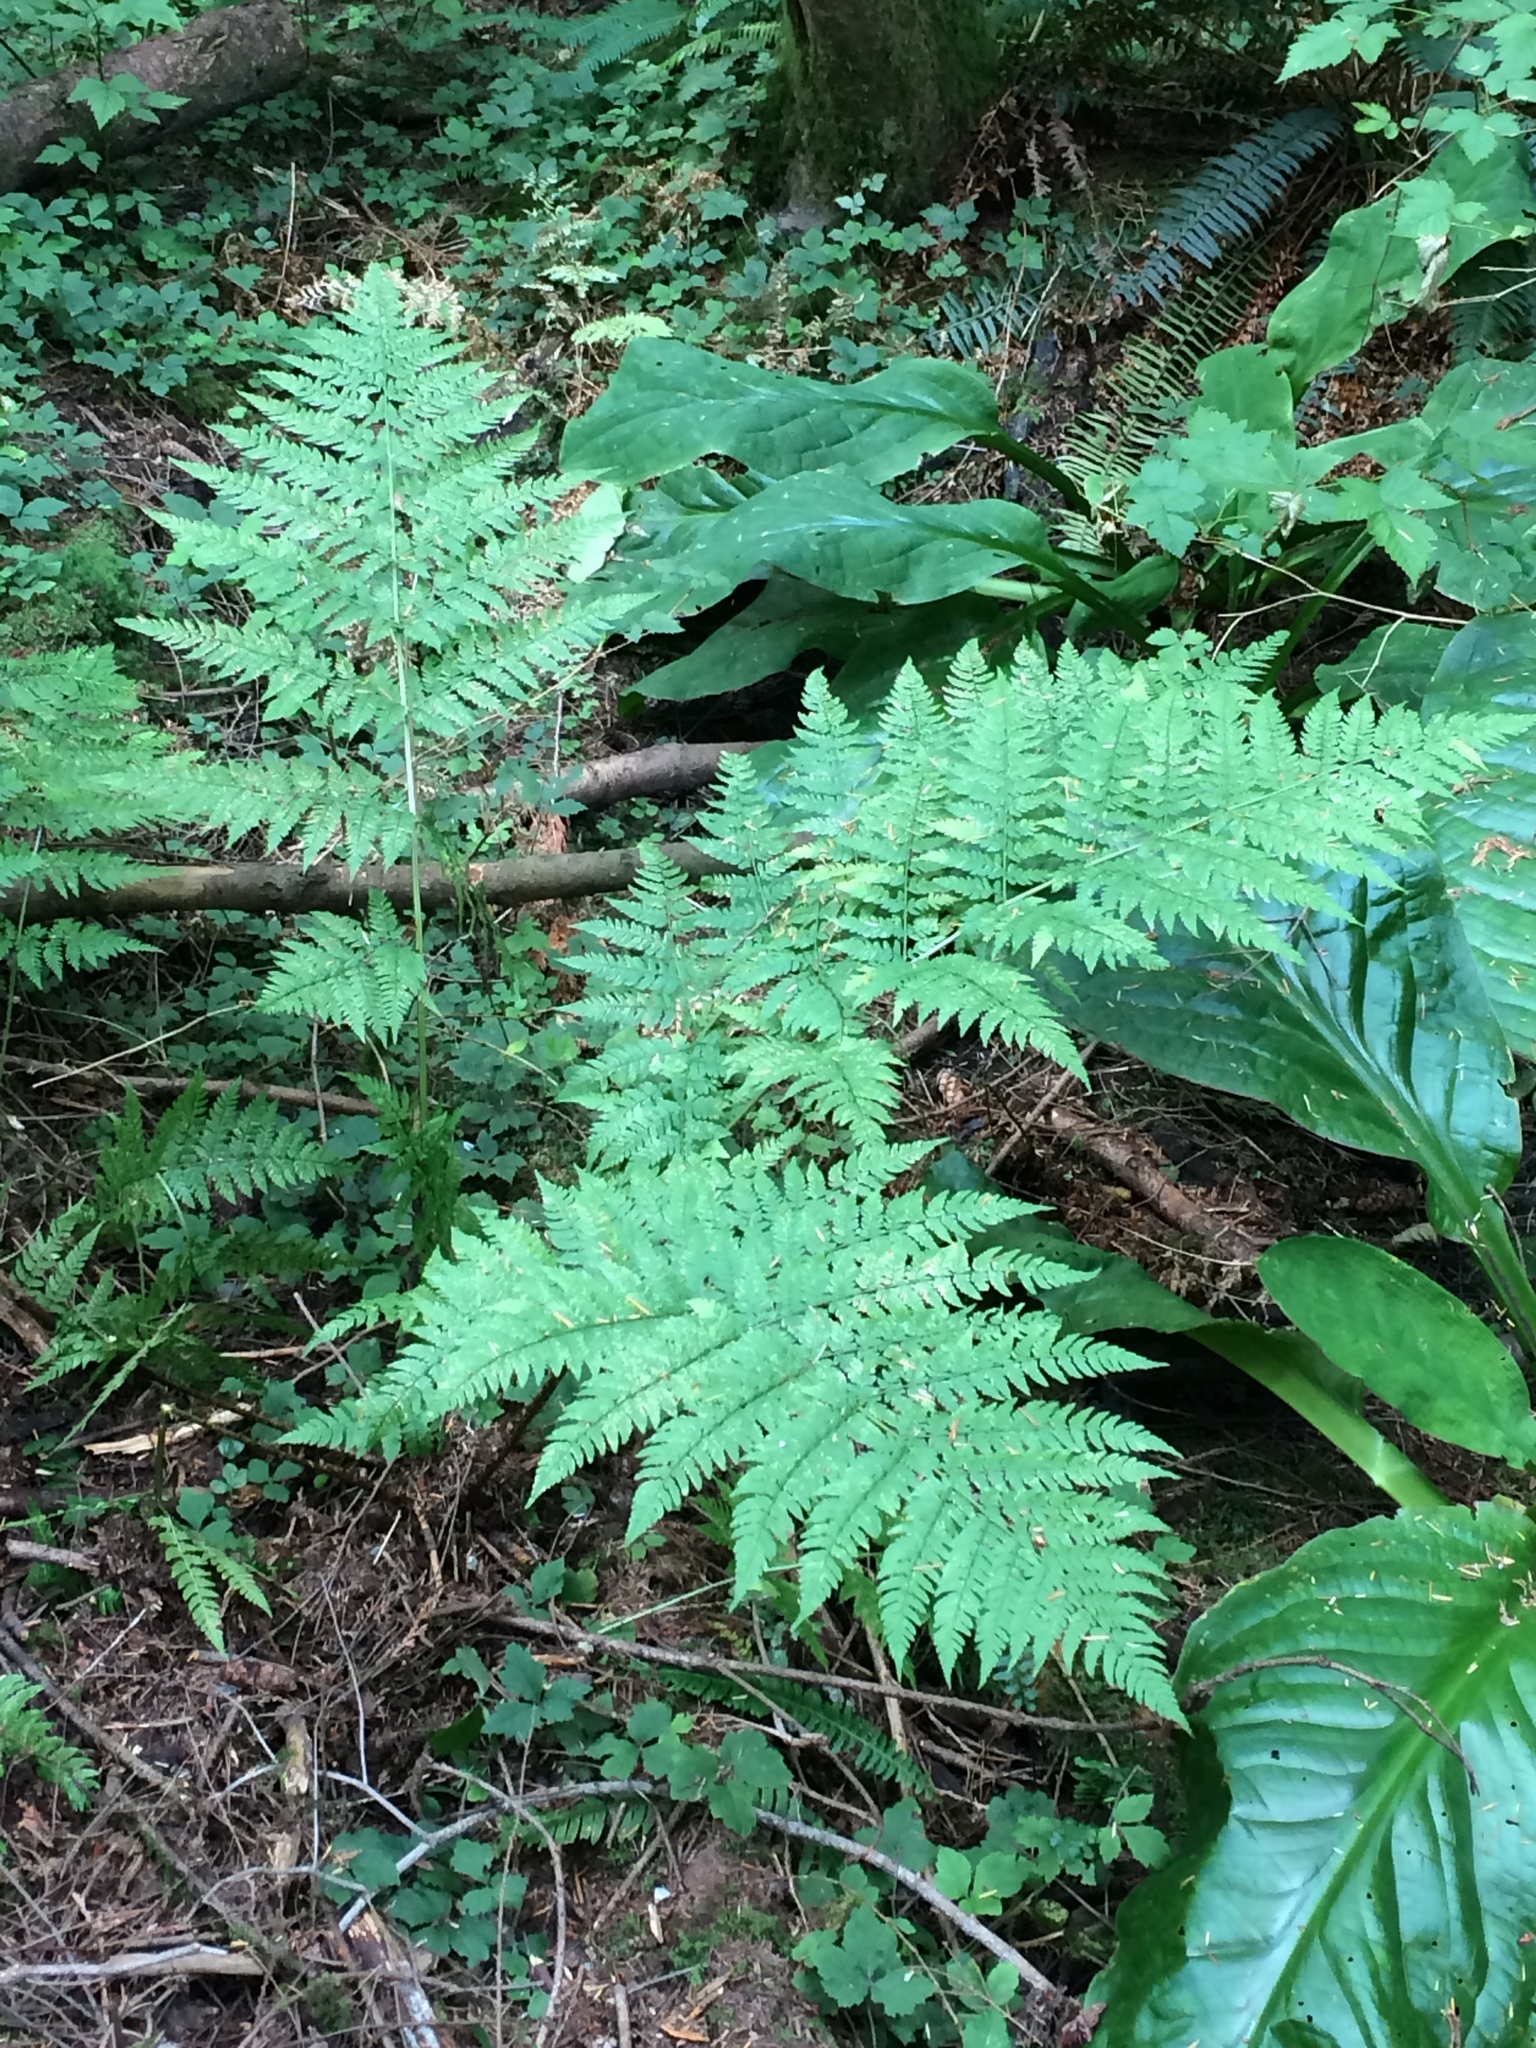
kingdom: Plantae
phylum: Tracheophyta
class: Polypodiopsida
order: Polypodiales
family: Dryopteridaceae
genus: Dryopteris
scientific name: Dryopteris expansa
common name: Northern buckler fern
